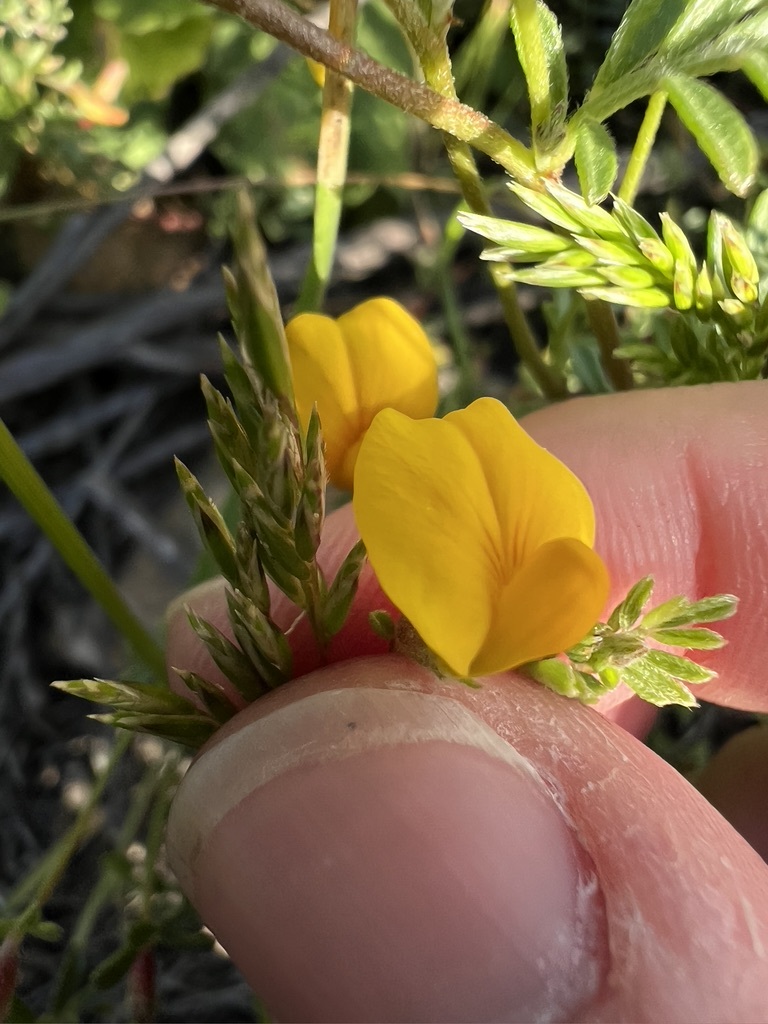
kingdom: Plantae
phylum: Tracheophyta
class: Magnoliopsida
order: Fabales
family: Fabaceae
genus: Acmispon
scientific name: Acmispon strigosus
